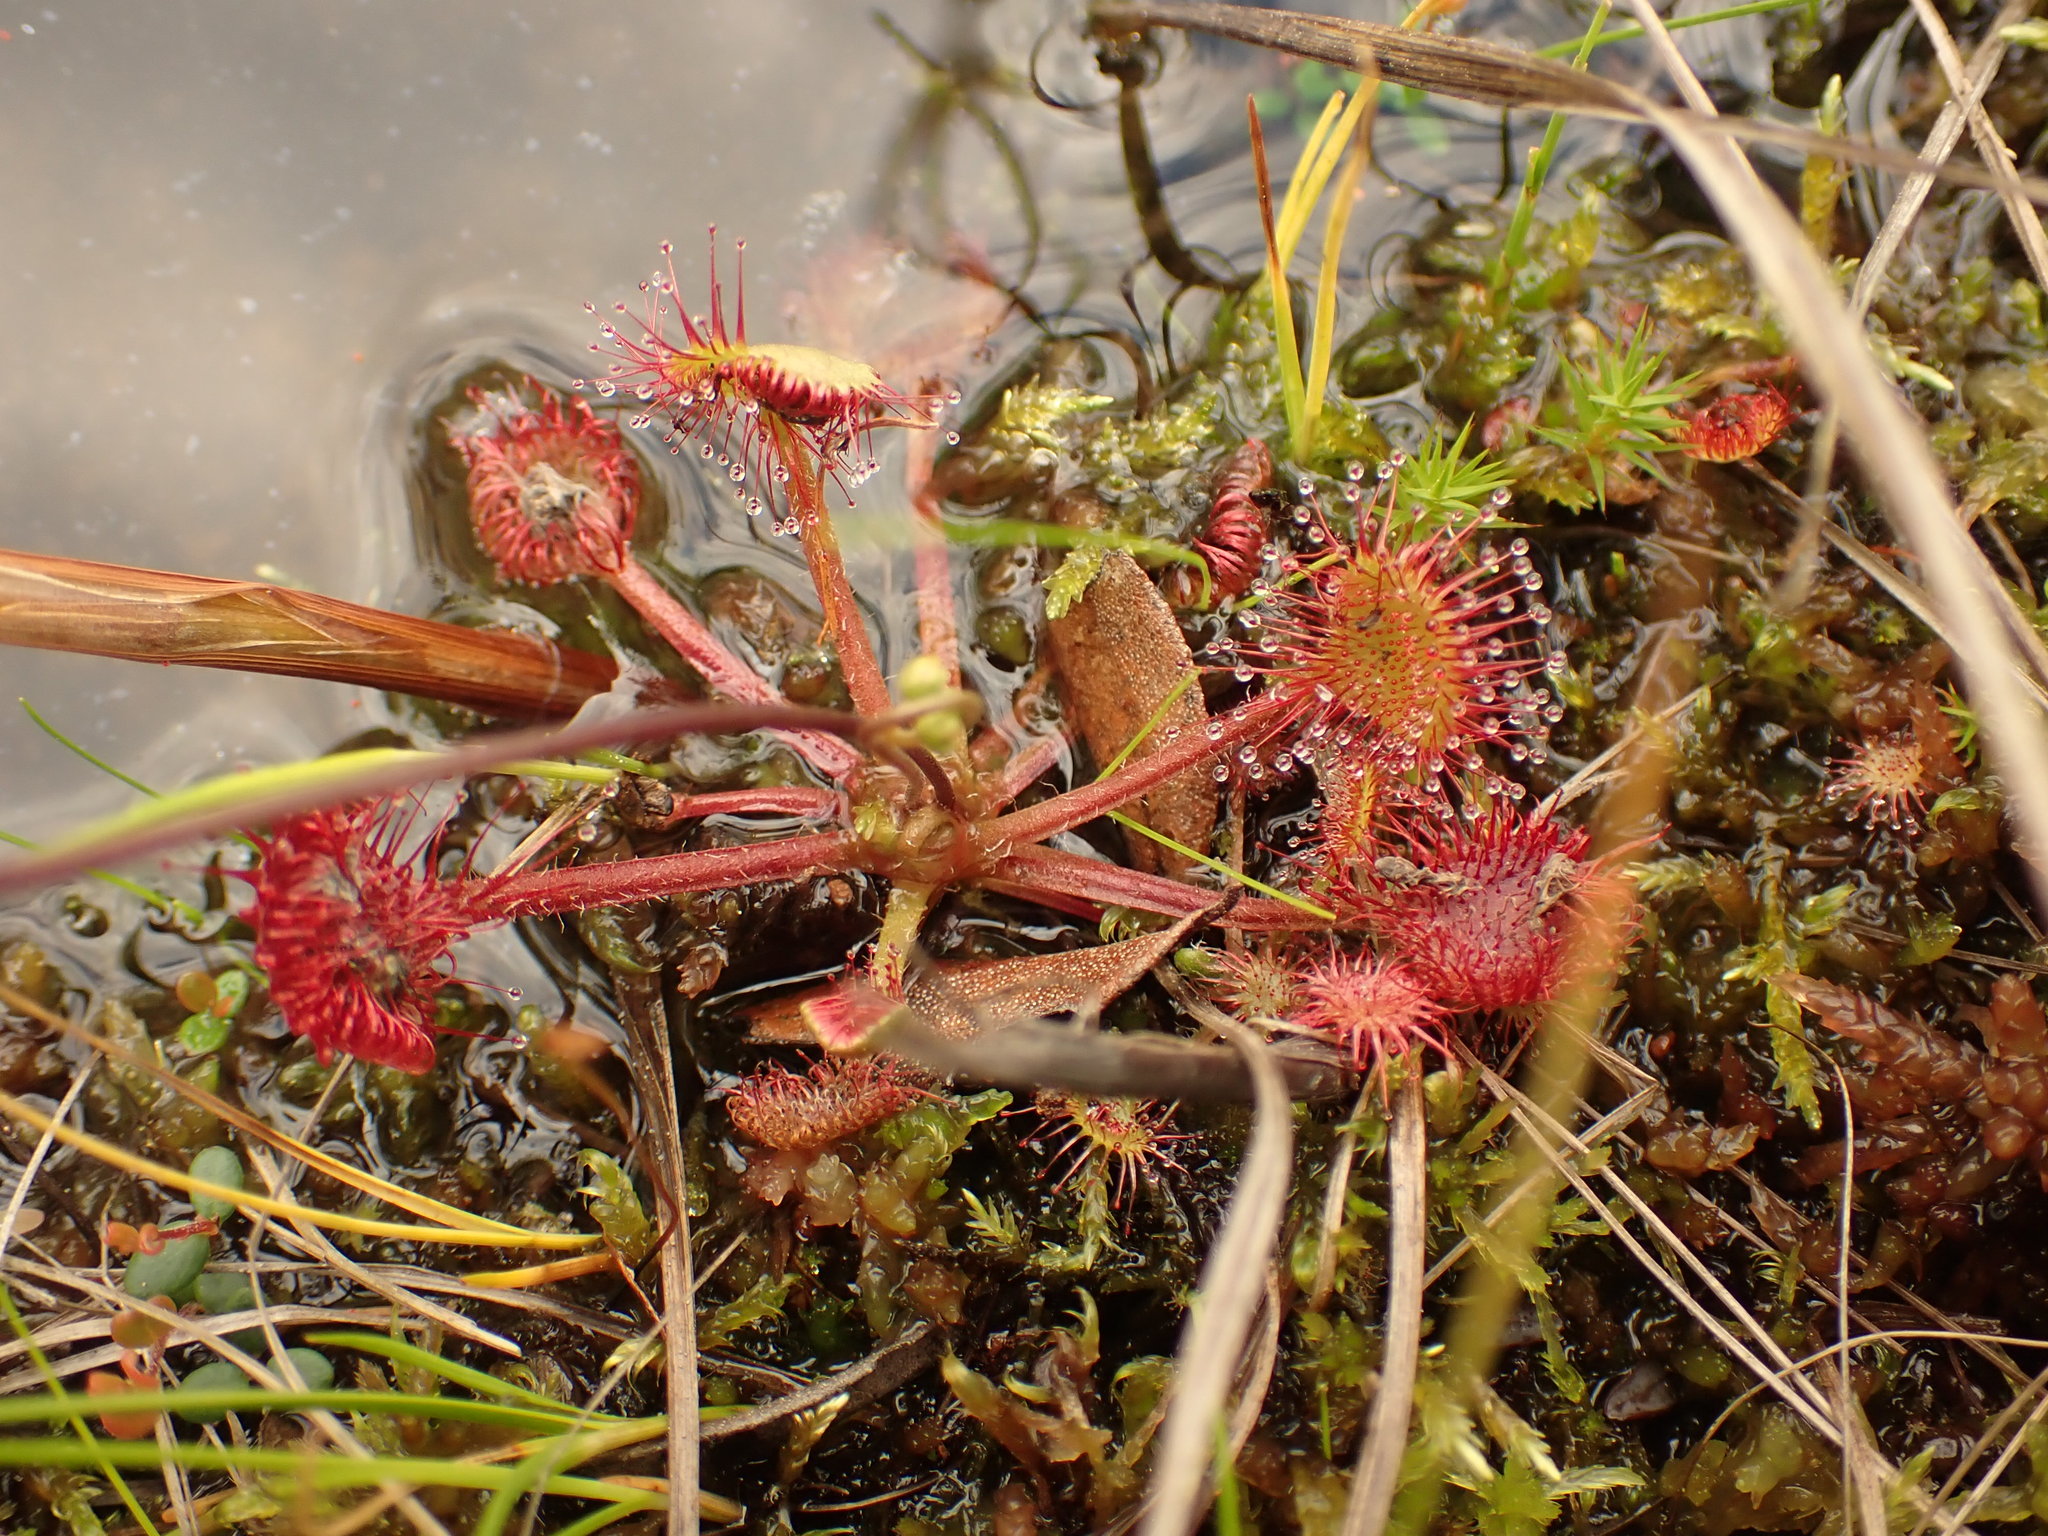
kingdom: Plantae
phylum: Tracheophyta
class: Magnoliopsida
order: Caryophyllales
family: Droseraceae
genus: Drosera
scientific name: Drosera rotundifolia
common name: Round-leaved sundew
